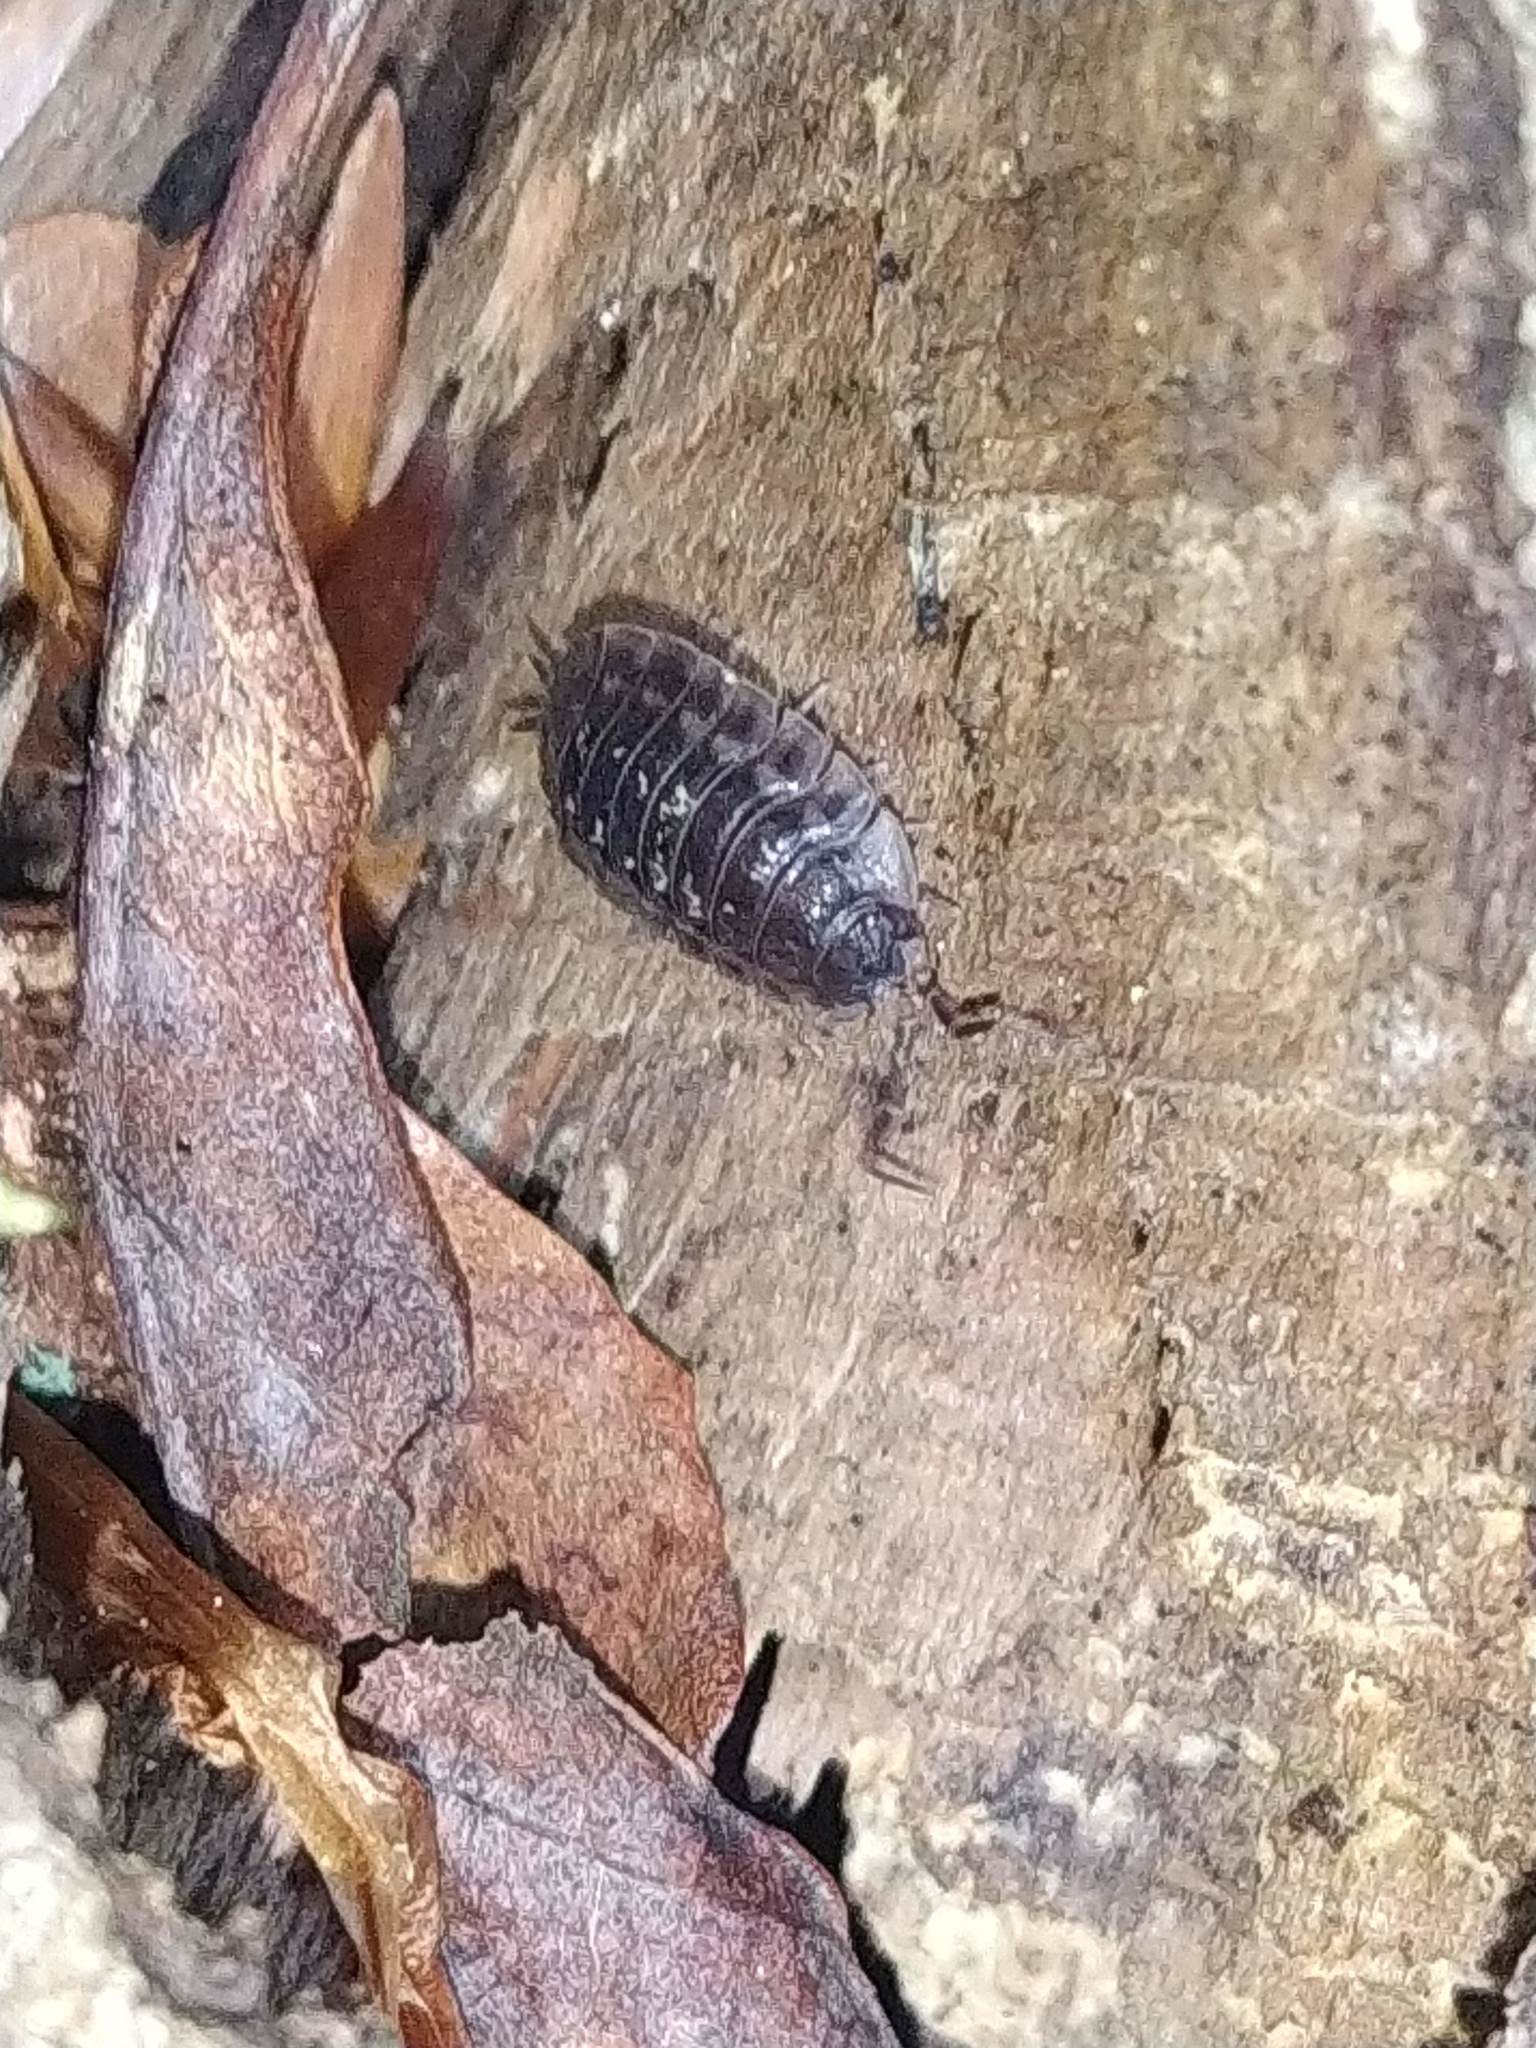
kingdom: Animalia
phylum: Arthropoda
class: Malacostraca
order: Isopoda
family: Oniscidae
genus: Oniscus
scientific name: Oniscus asellus
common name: Common shiny woodlouse
